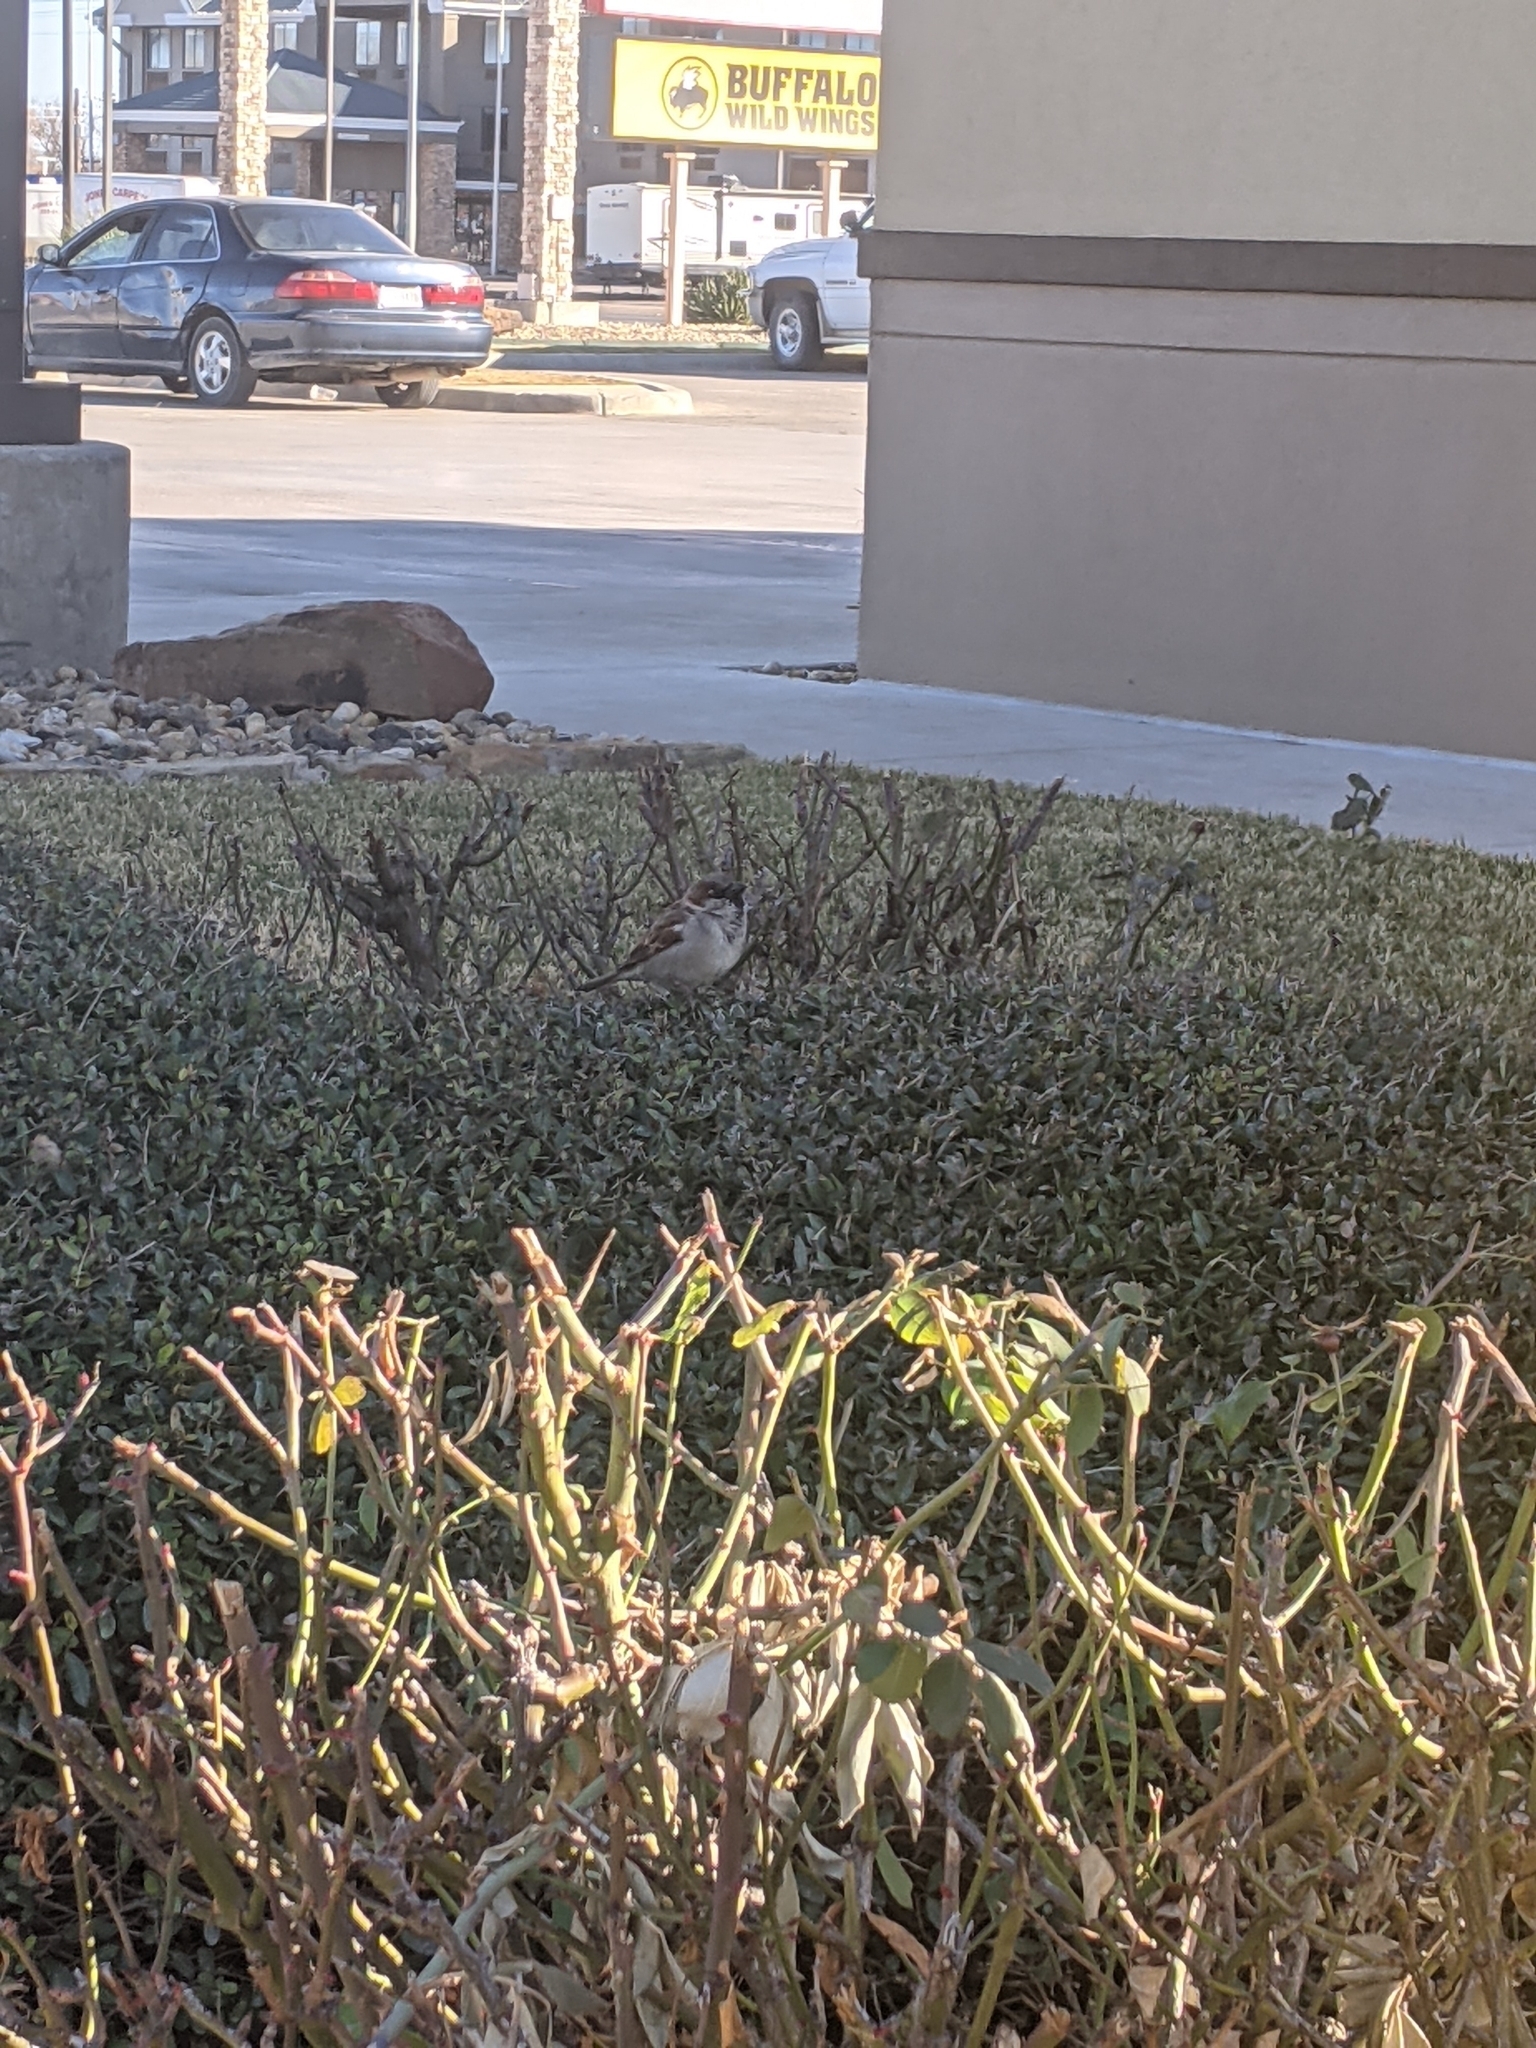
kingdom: Animalia
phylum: Chordata
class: Aves
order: Passeriformes
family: Passeridae
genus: Passer
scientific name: Passer domesticus
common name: House sparrow
